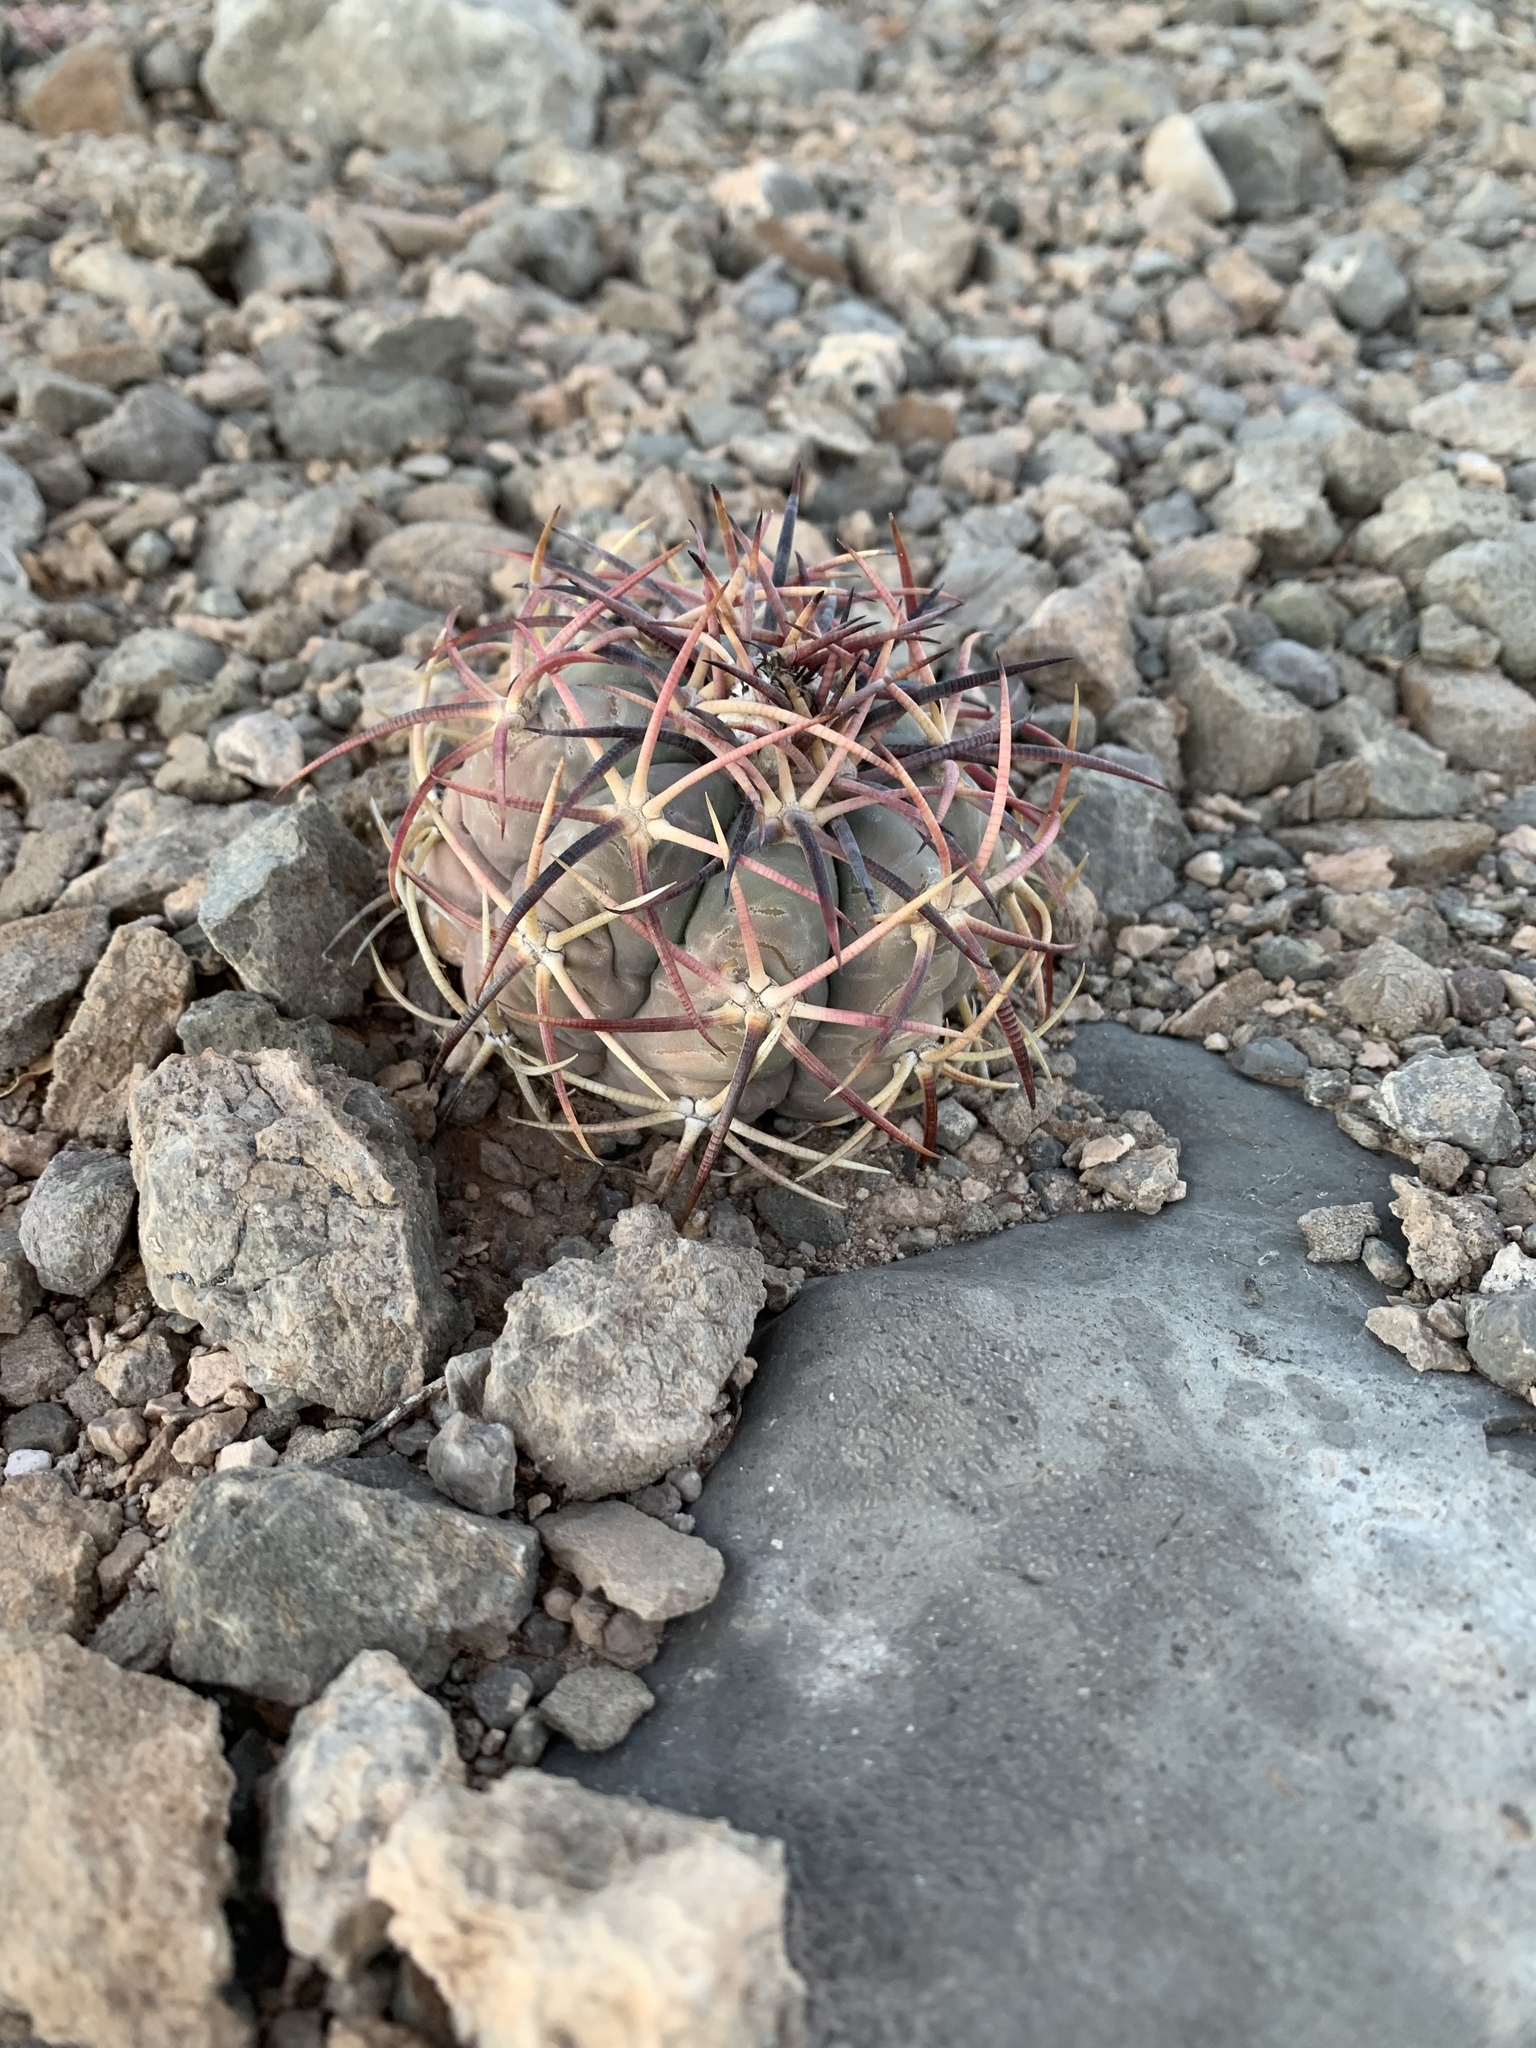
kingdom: Plantae
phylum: Tracheophyta
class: Magnoliopsida
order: Caryophyllales
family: Cactaceae
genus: Echinocactus
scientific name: Echinocactus horizonthalonius
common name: Devilshead
